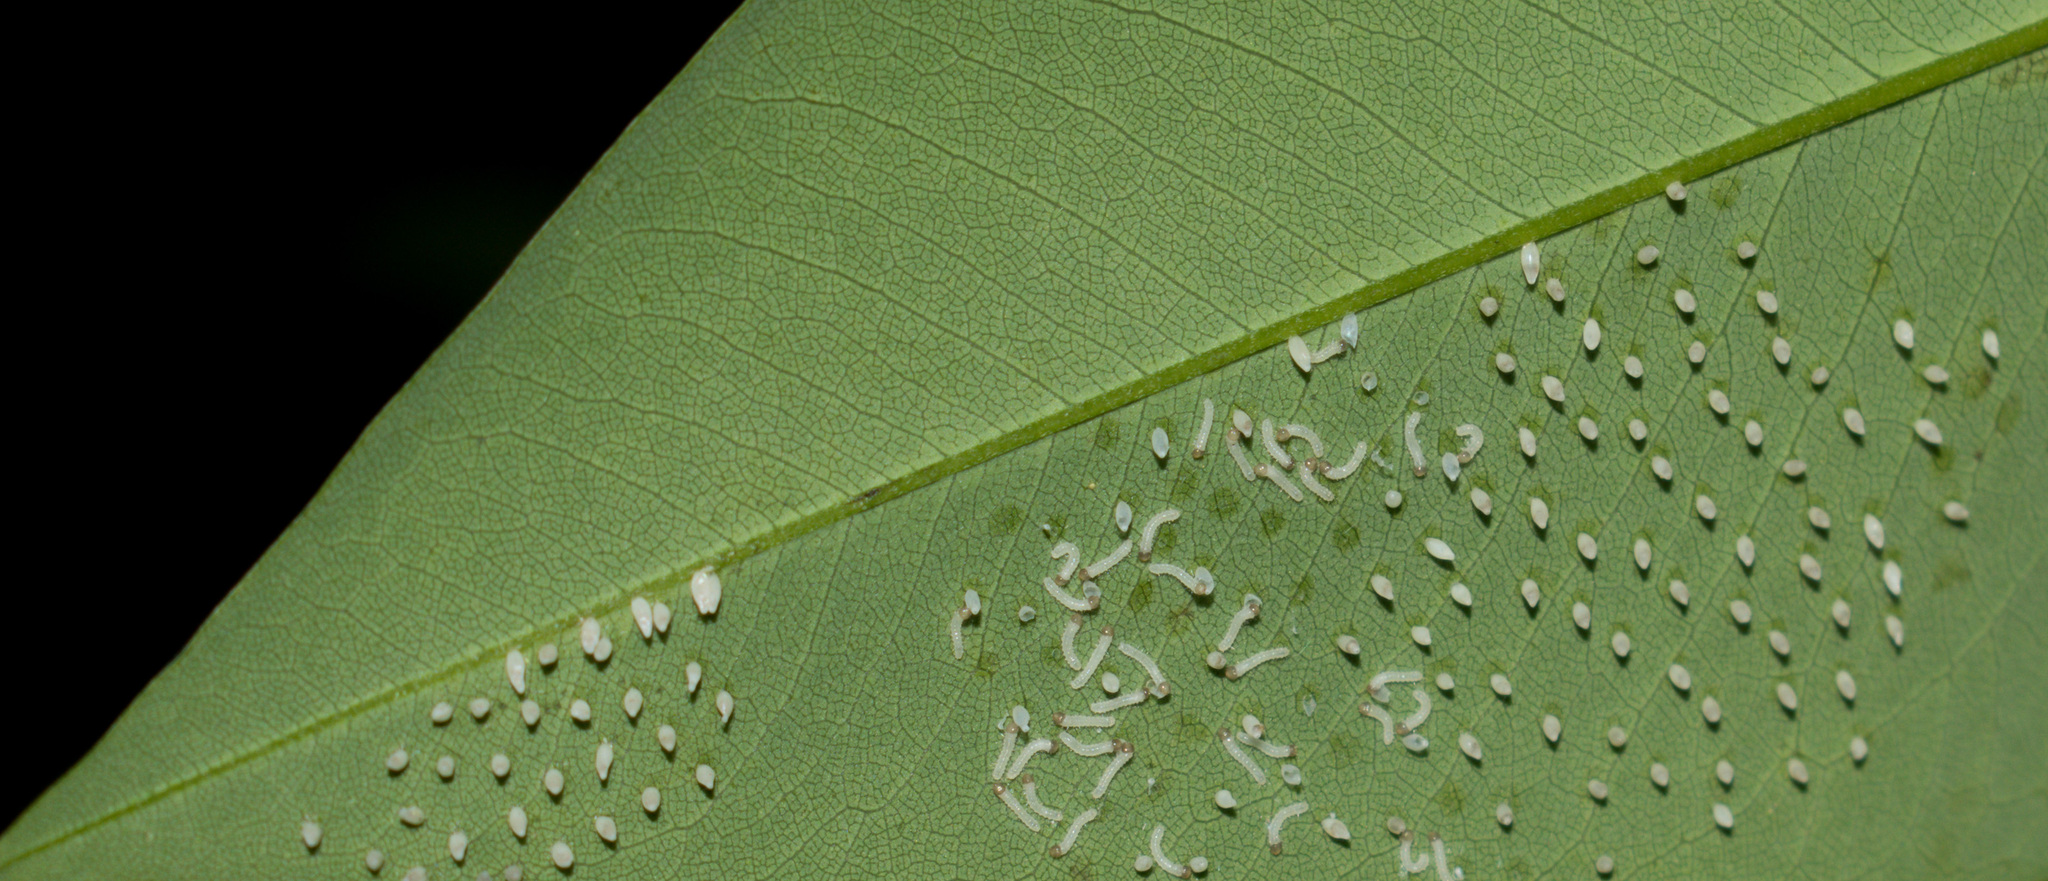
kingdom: Animalia
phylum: Arthropoda
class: Insecta
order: Lepidoptera
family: Pieridae
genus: Eurema
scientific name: Eurema blanda
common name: Three-spot grass yellow
